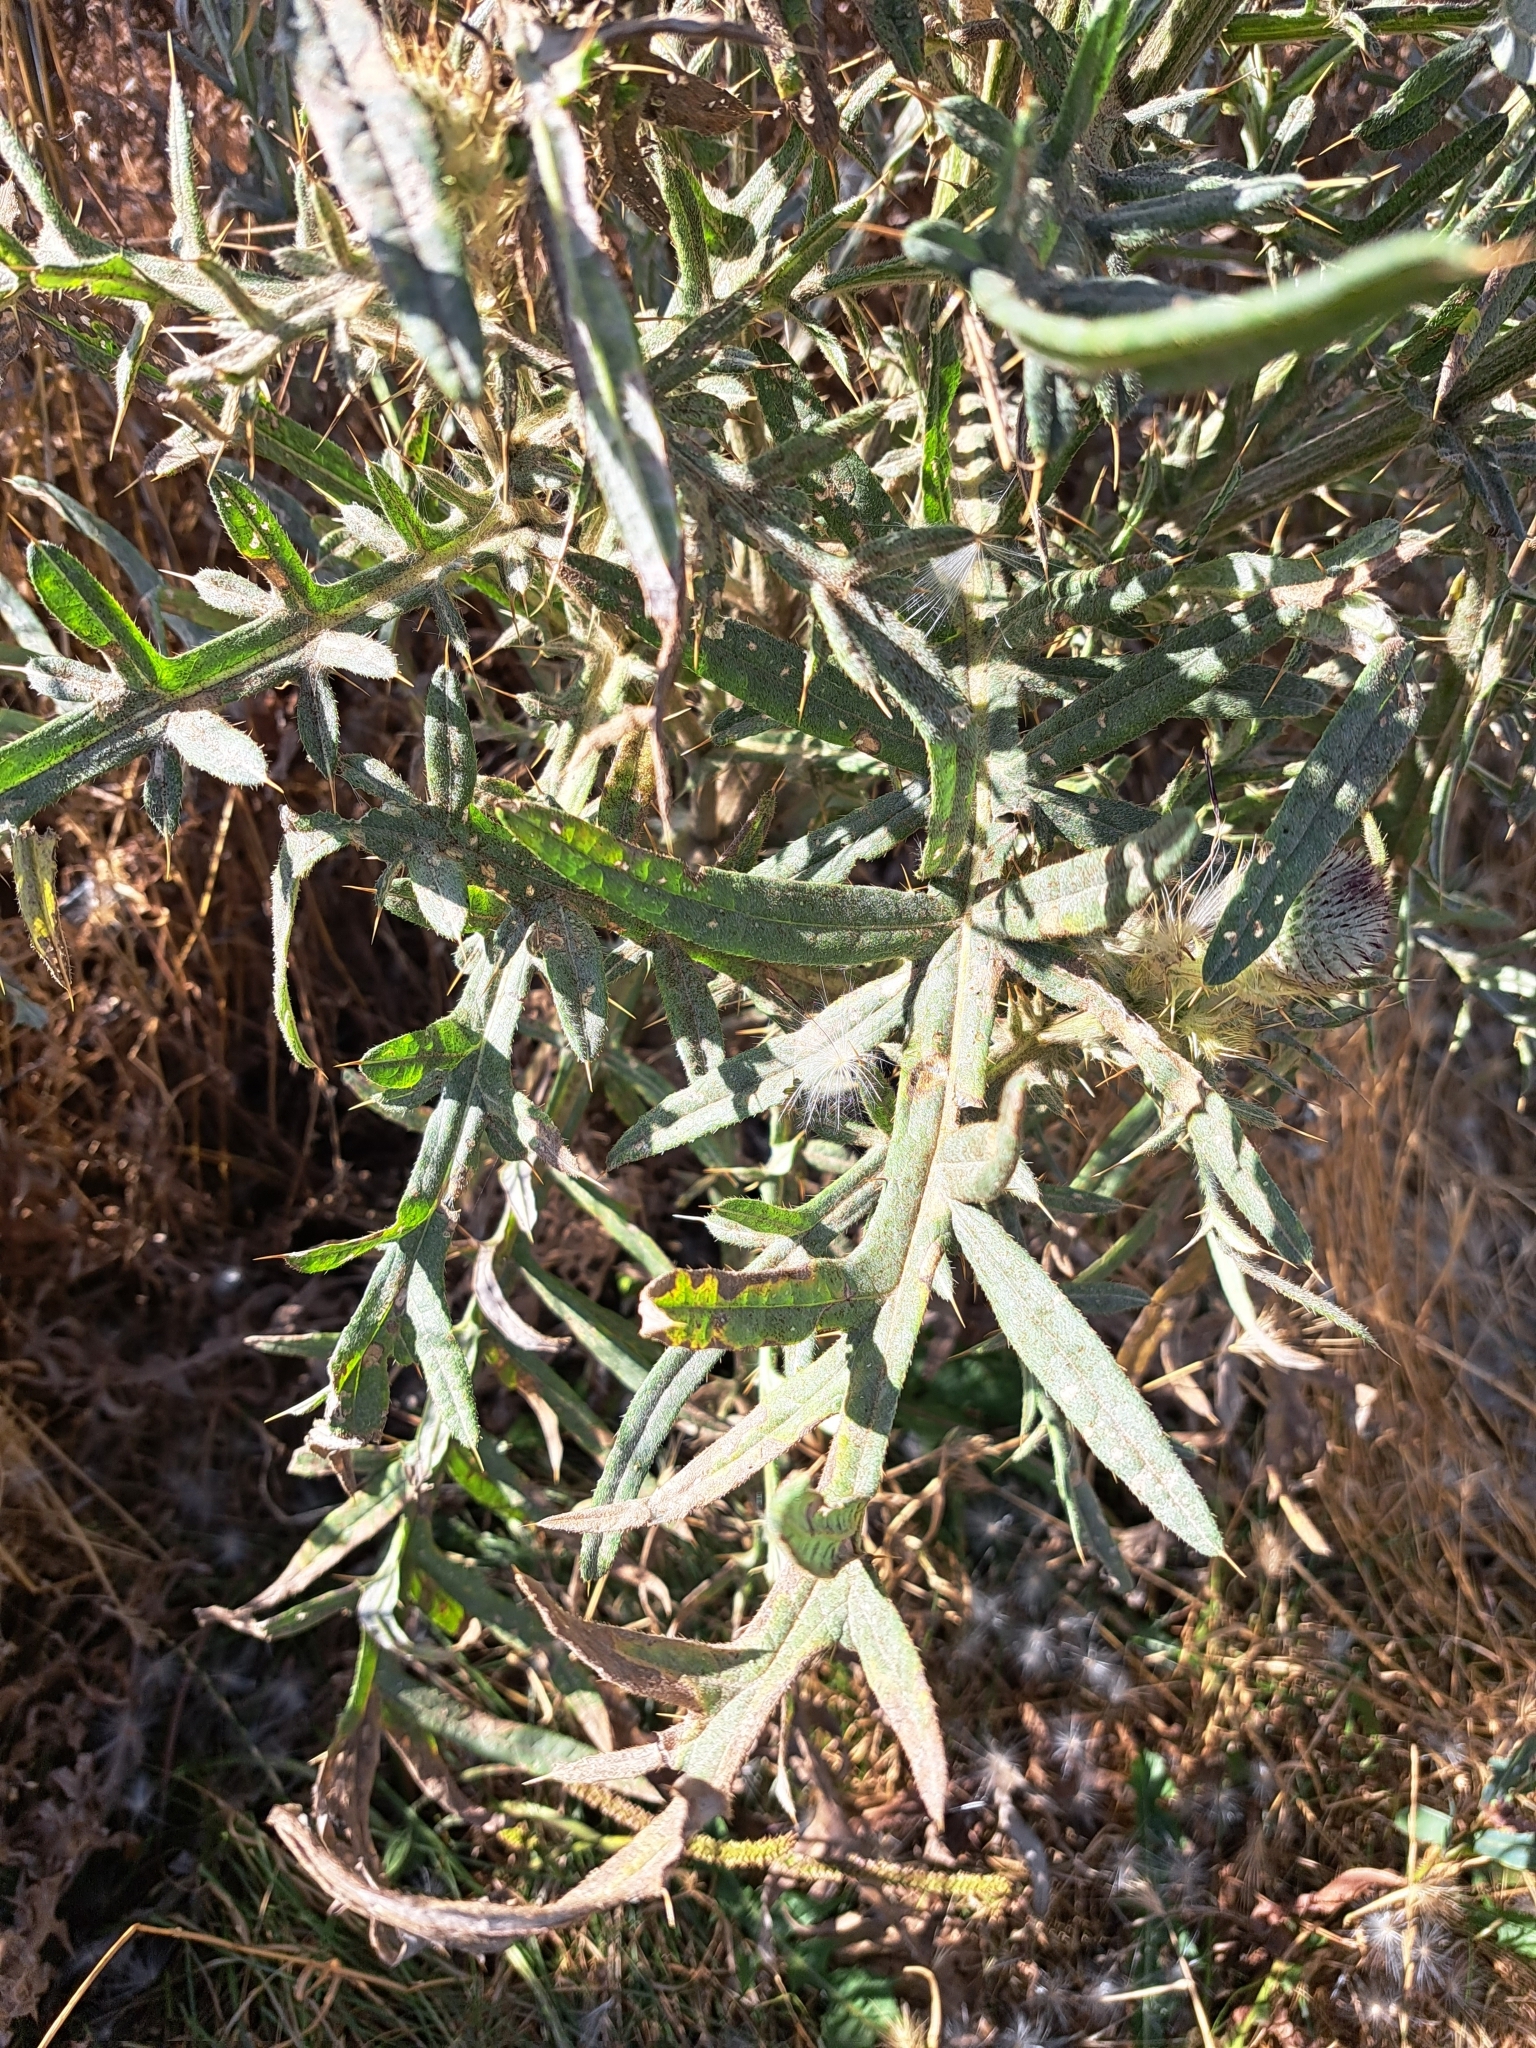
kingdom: Plantae
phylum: Tracheophyta
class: Magnoliopsida
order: Asterales
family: Asteraceae
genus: Lophiolepis
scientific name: Lophiolepis eriophora
